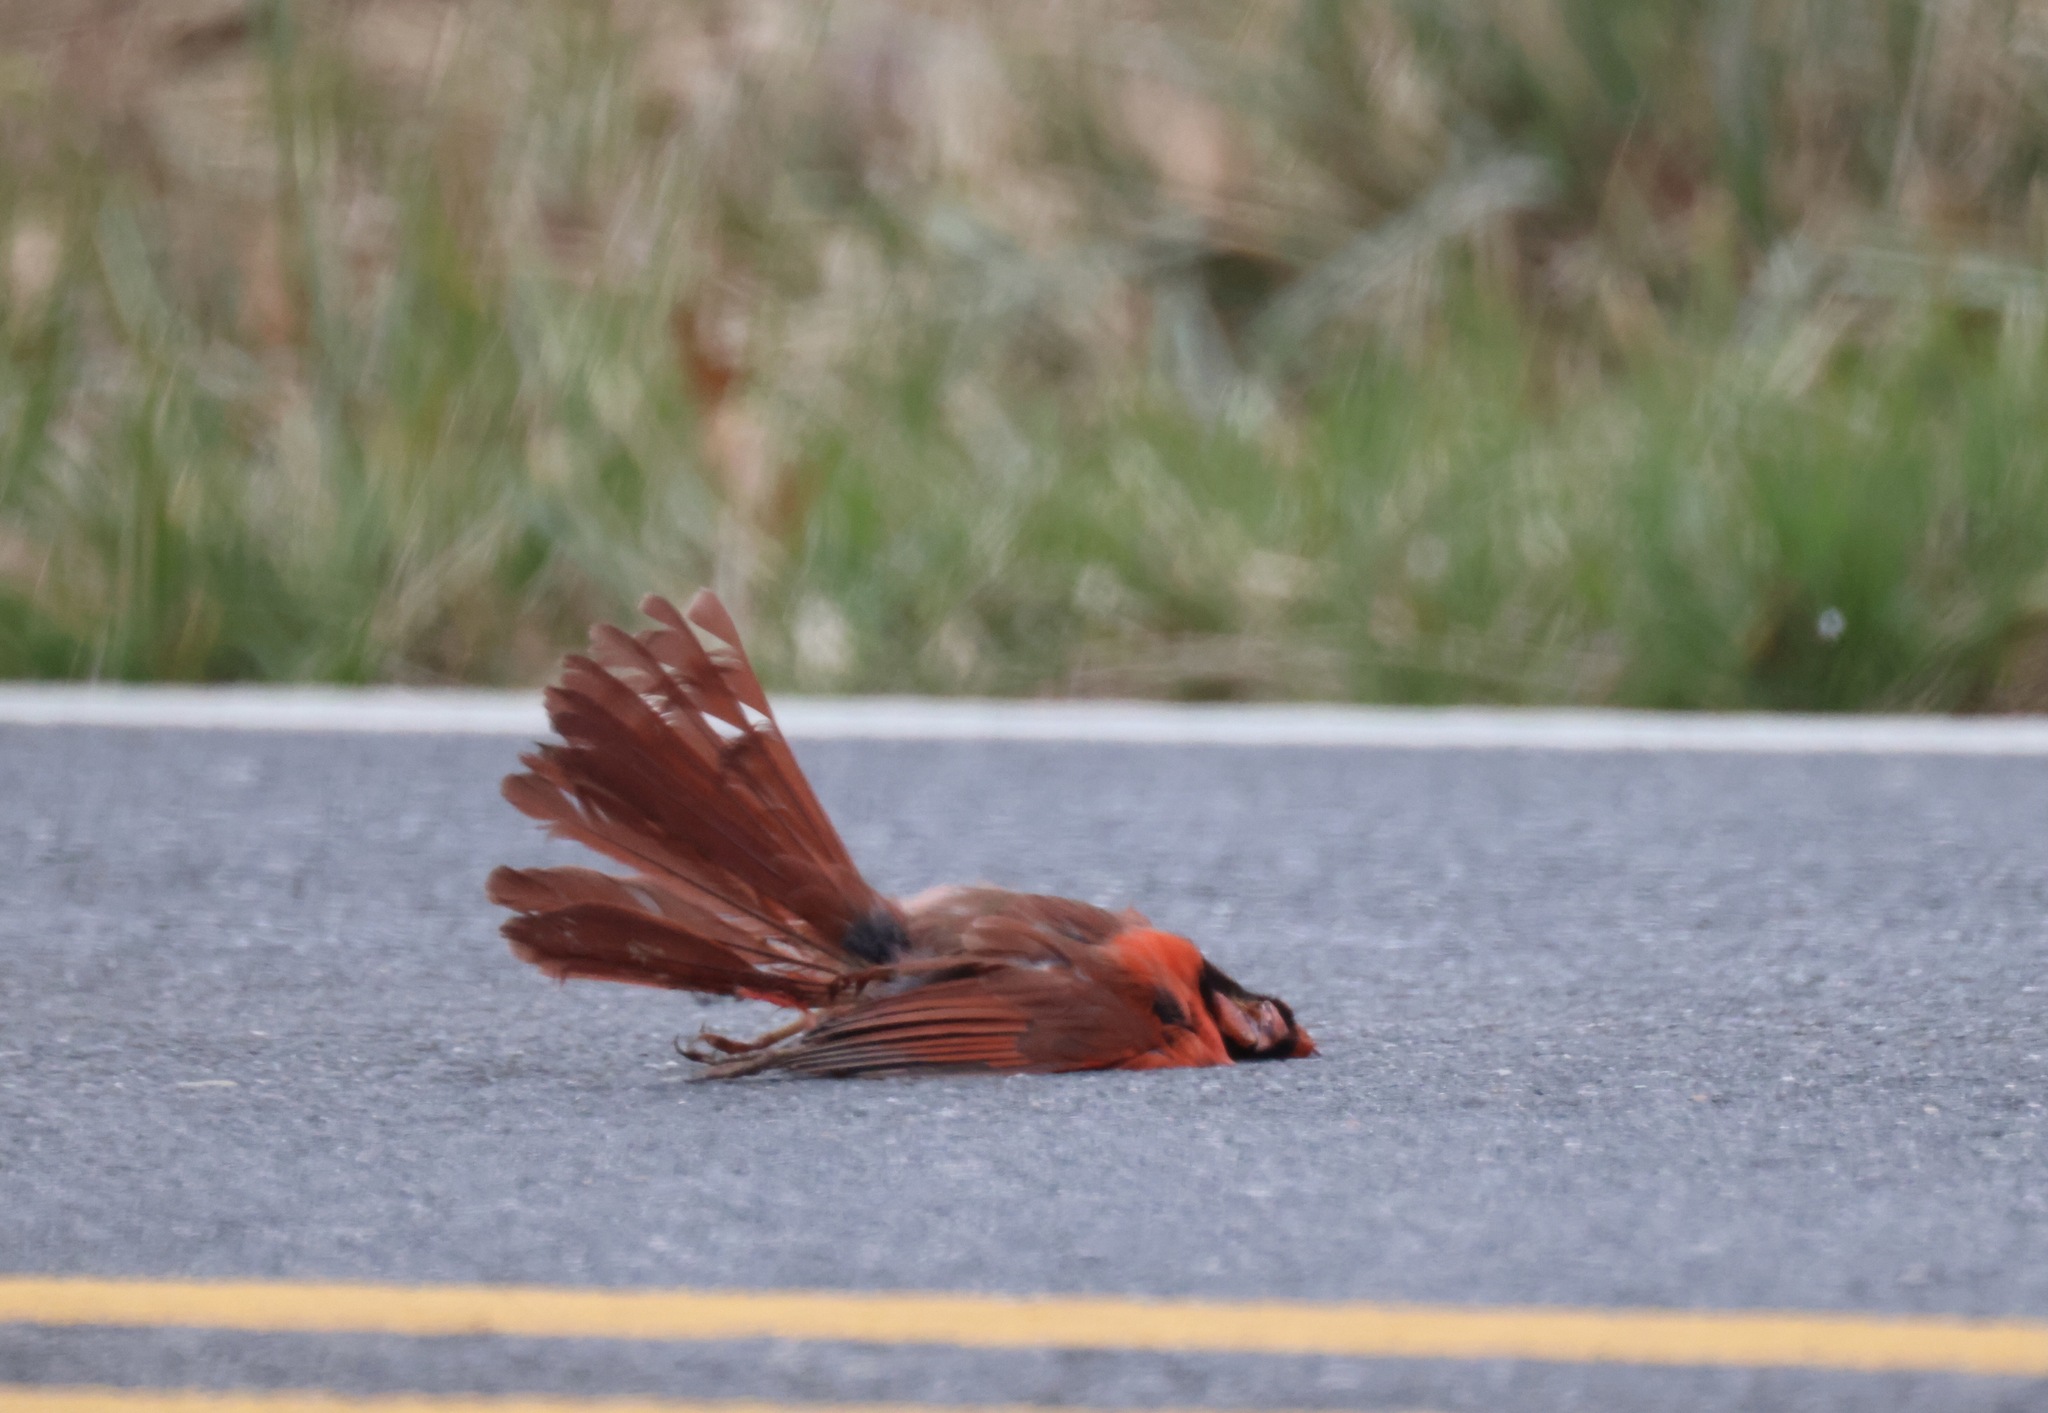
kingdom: Animalia
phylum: Chordata
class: Aves
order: Passeriformes
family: Cardinalidae
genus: Cardinalis
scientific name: Cardinalis cardinalis
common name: Northern cardinal
